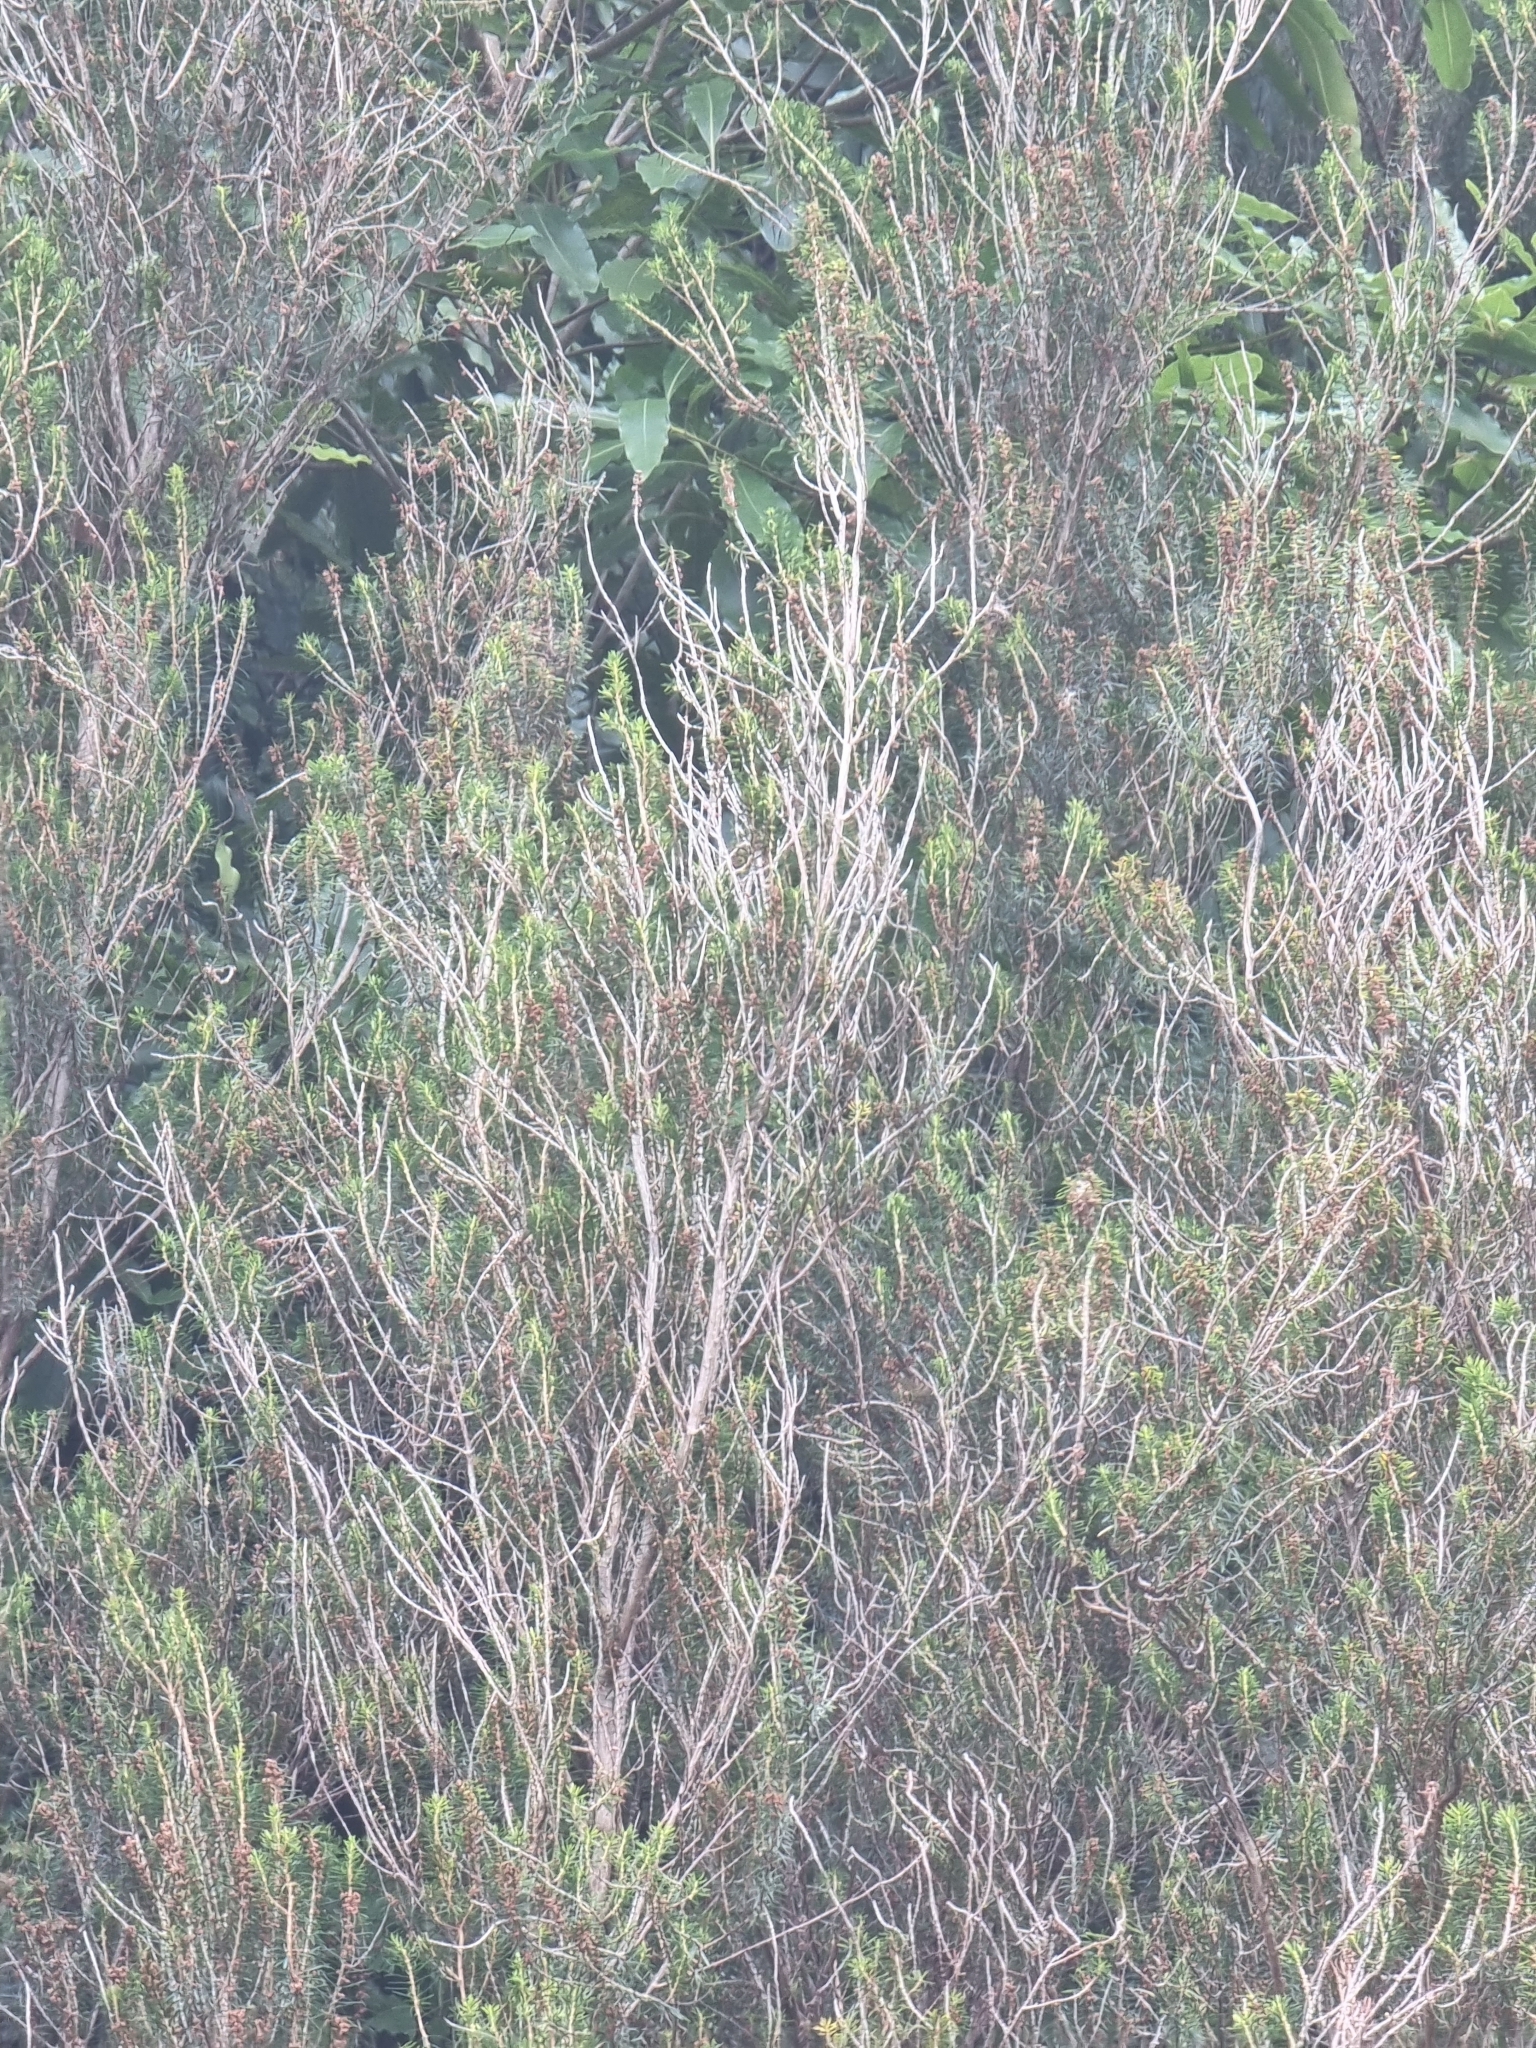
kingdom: Plantae
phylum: Tracheophyta
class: Magnoliopsida
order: Ericales
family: Ericaceae
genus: Erica
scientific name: Erica platycodon
